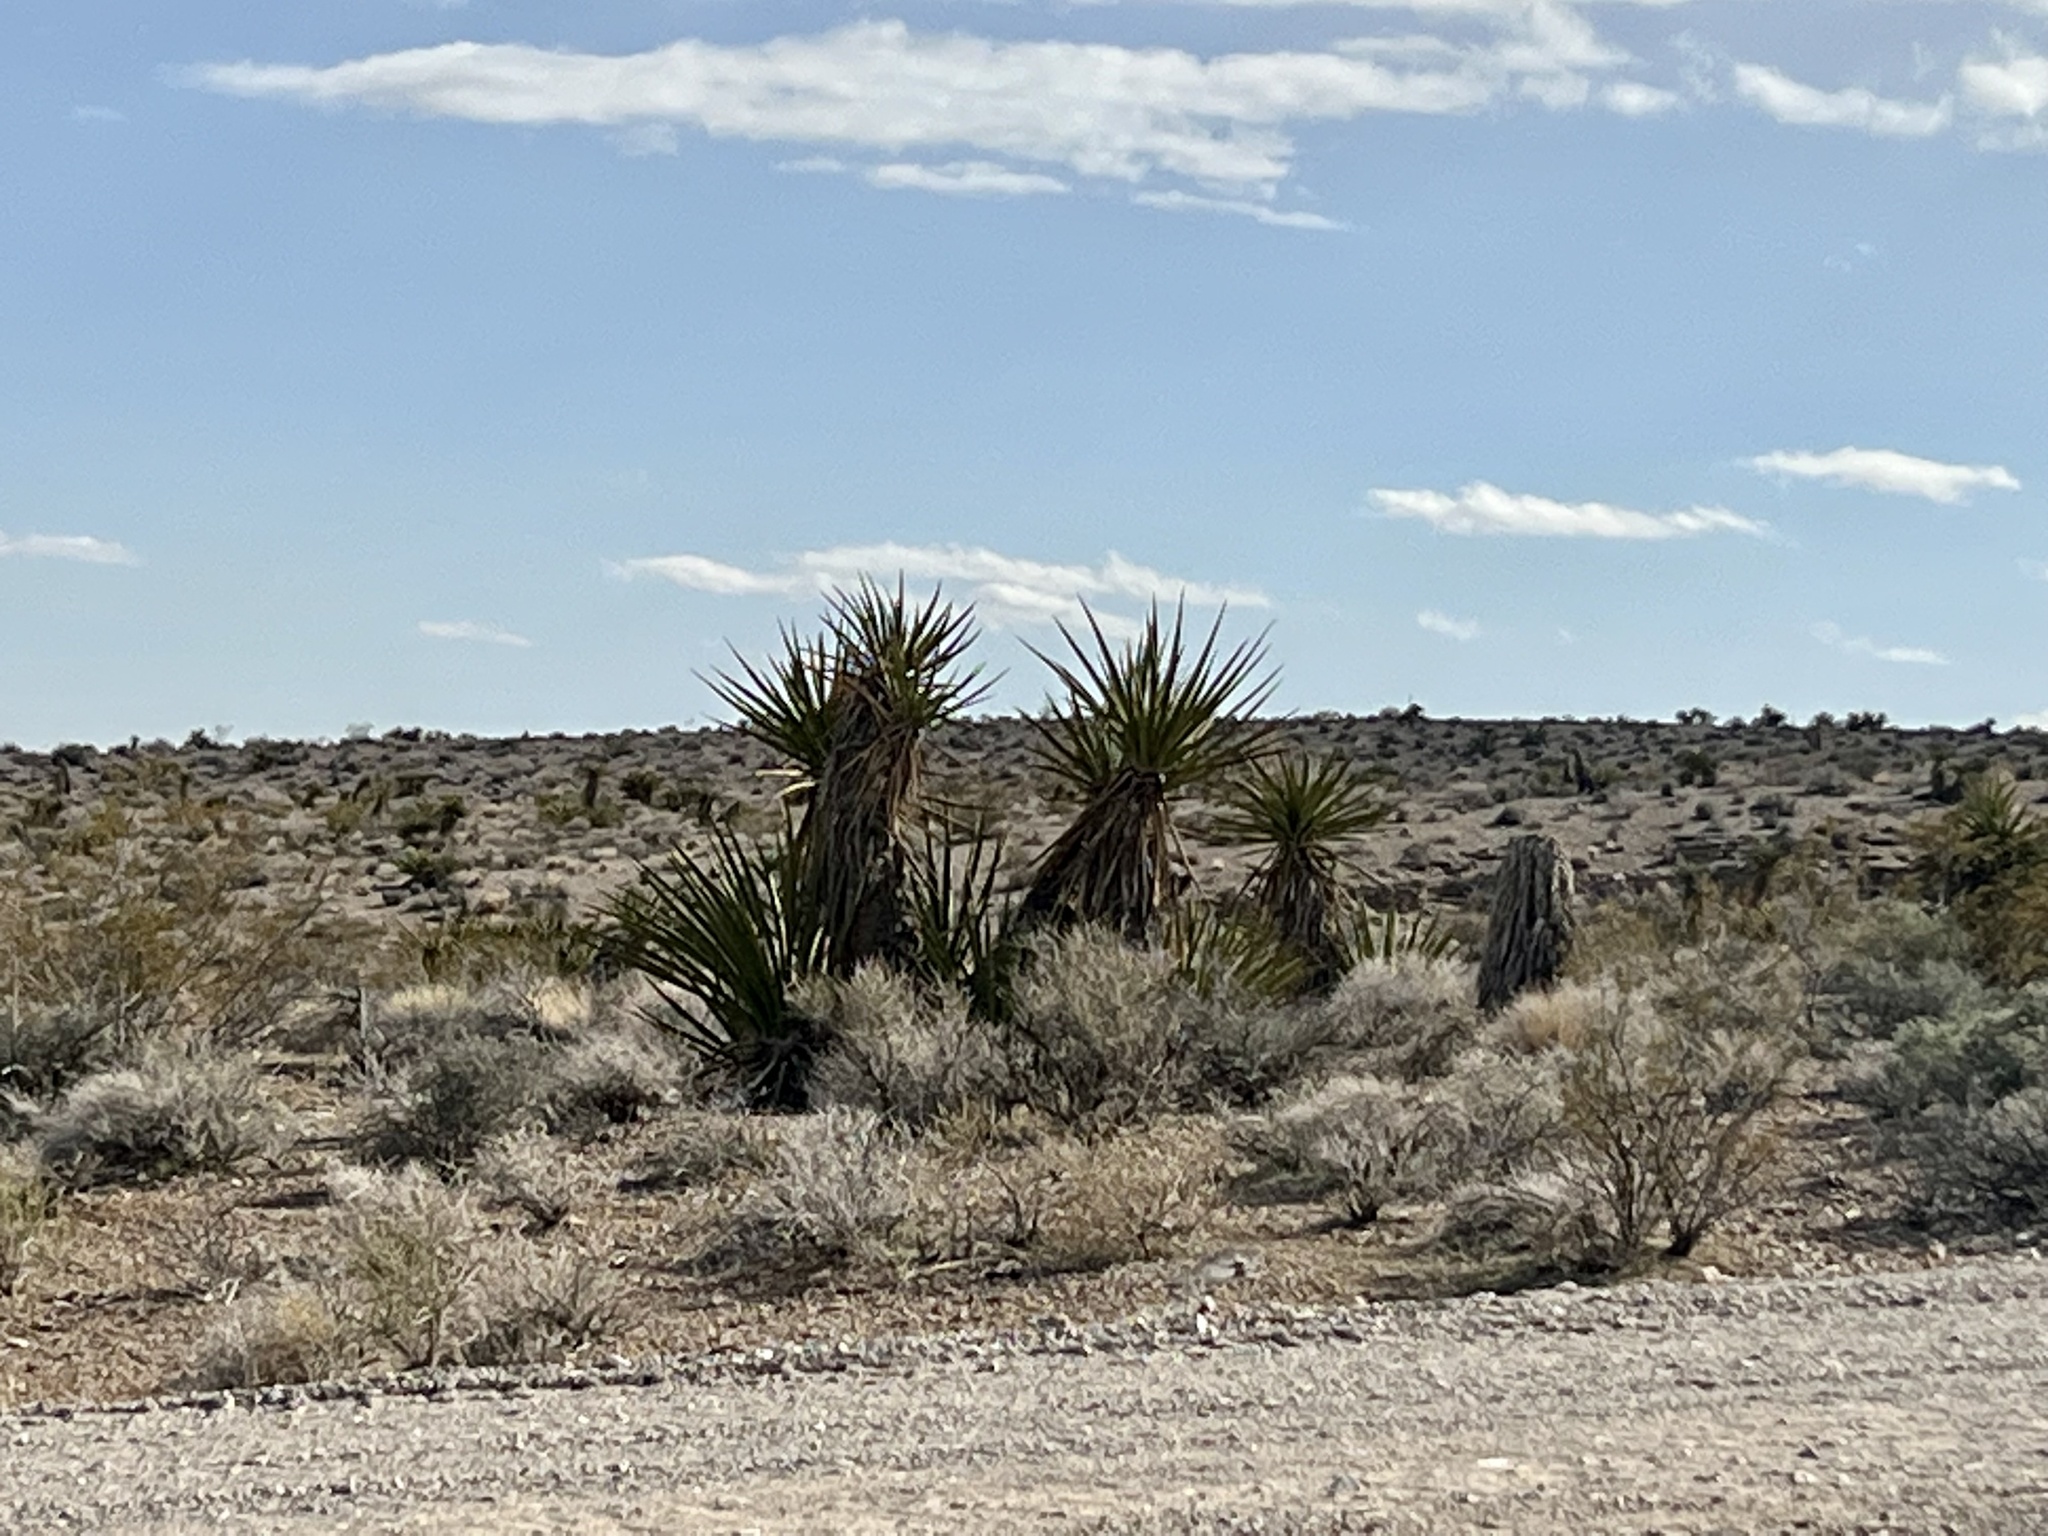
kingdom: Plantae
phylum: Tracheophyta
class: Liliopsida
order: Asparagales
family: Asparagaceae
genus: Yucca
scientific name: Yucca schidigera
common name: Mojave yucca
